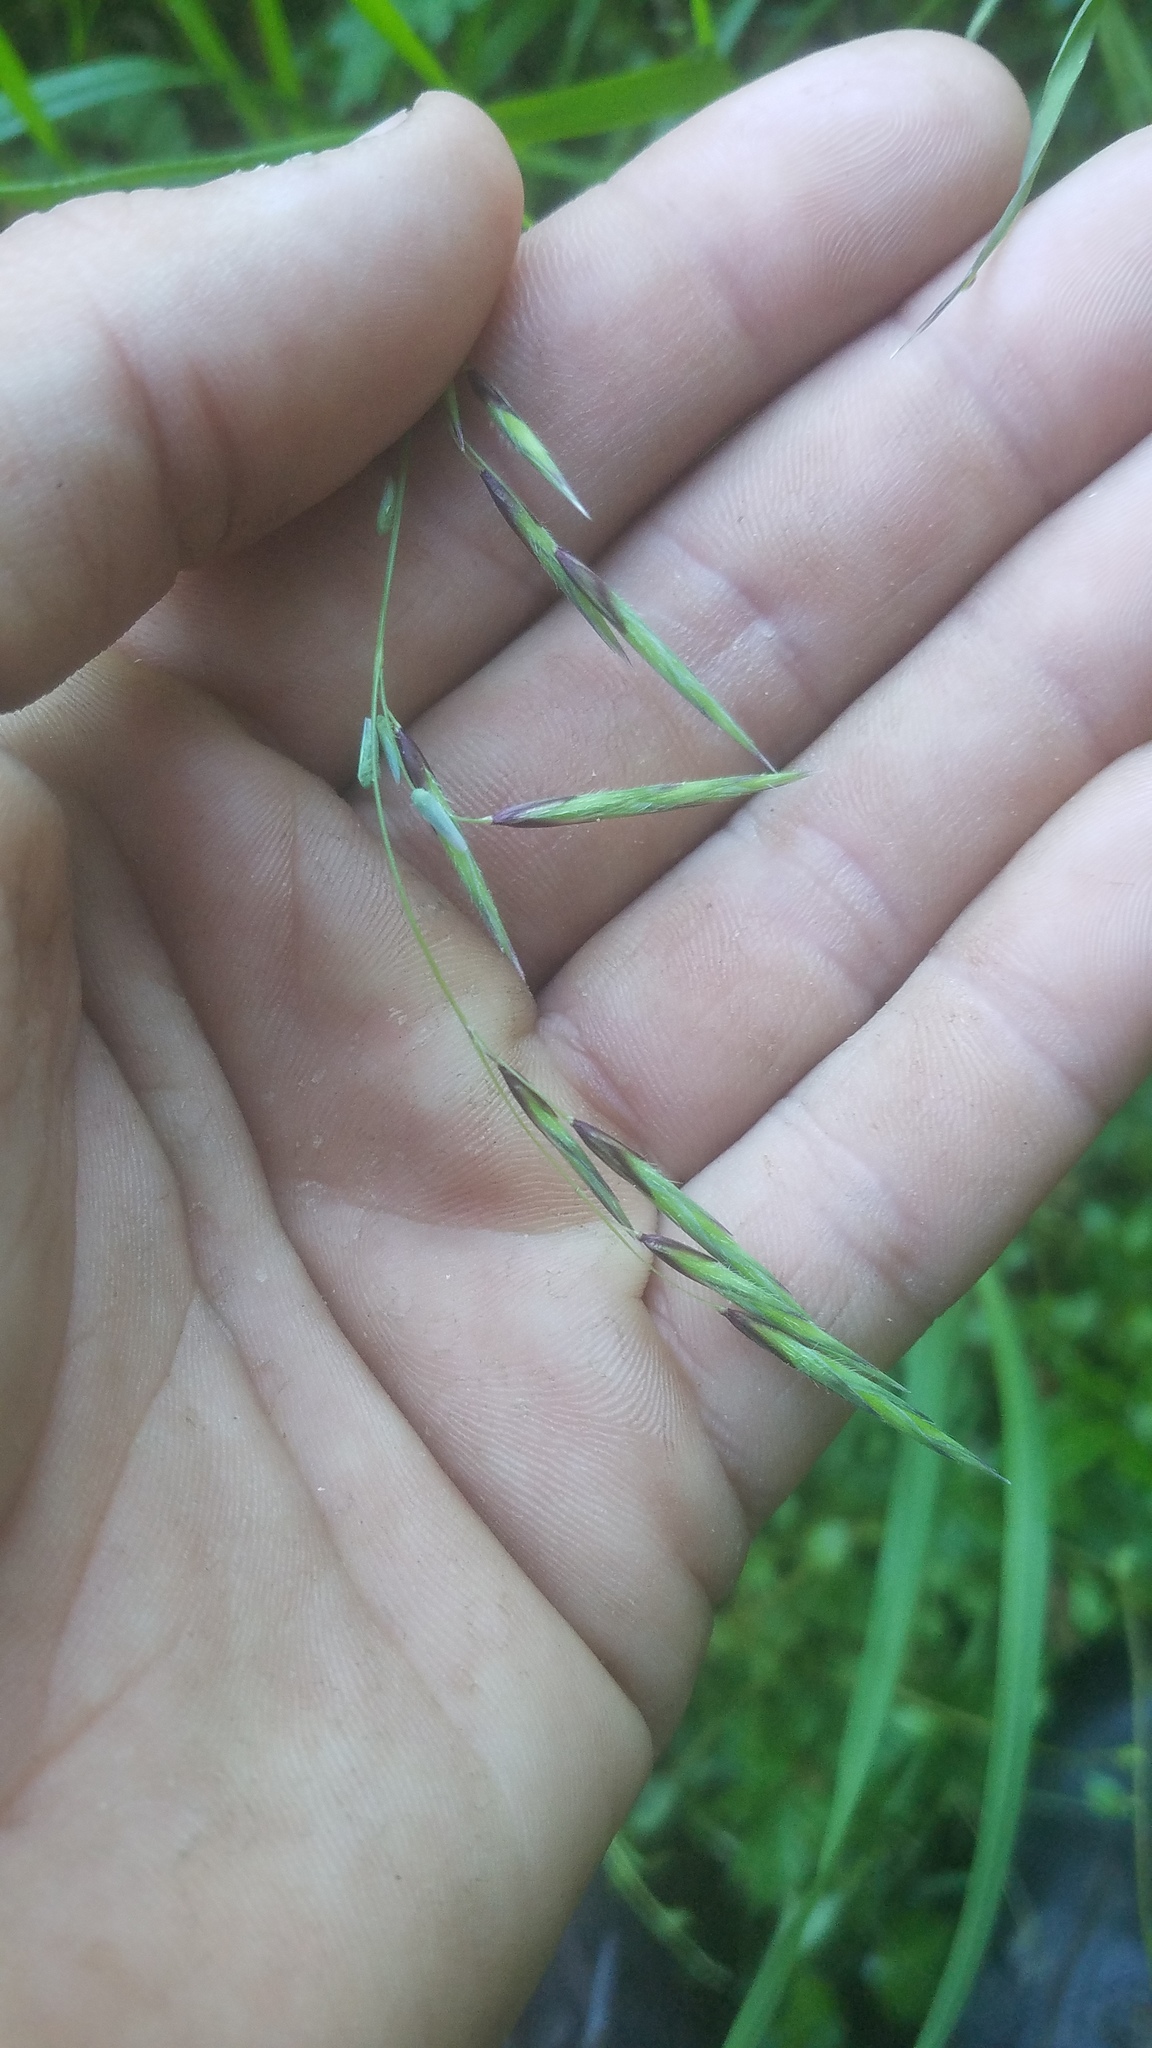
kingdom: Plantae
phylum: Tracheophyta
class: Liliopsida
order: Poales
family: Poaceae
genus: Melica
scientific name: Melica subulata
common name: Tapered oniongrass
